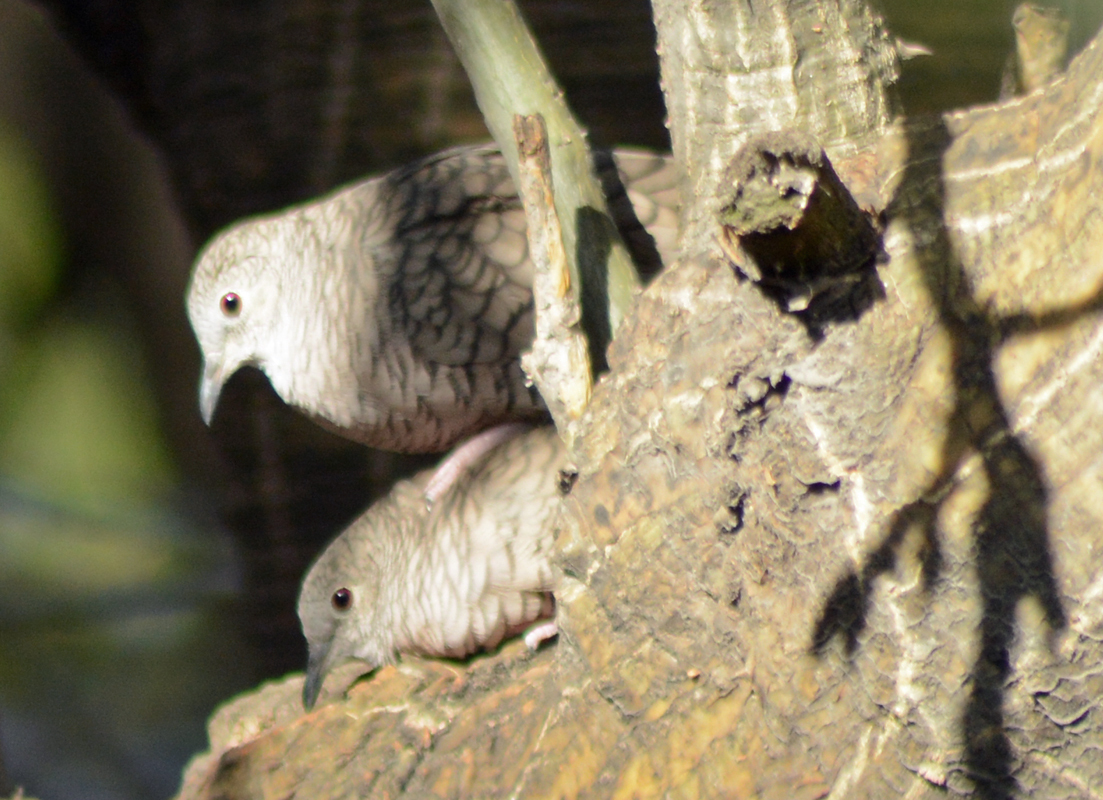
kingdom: Animalia
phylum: Chordata
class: Aves
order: Columbiformes
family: Columbidae
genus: Columbina
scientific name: Columbina inca
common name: Inca dove
